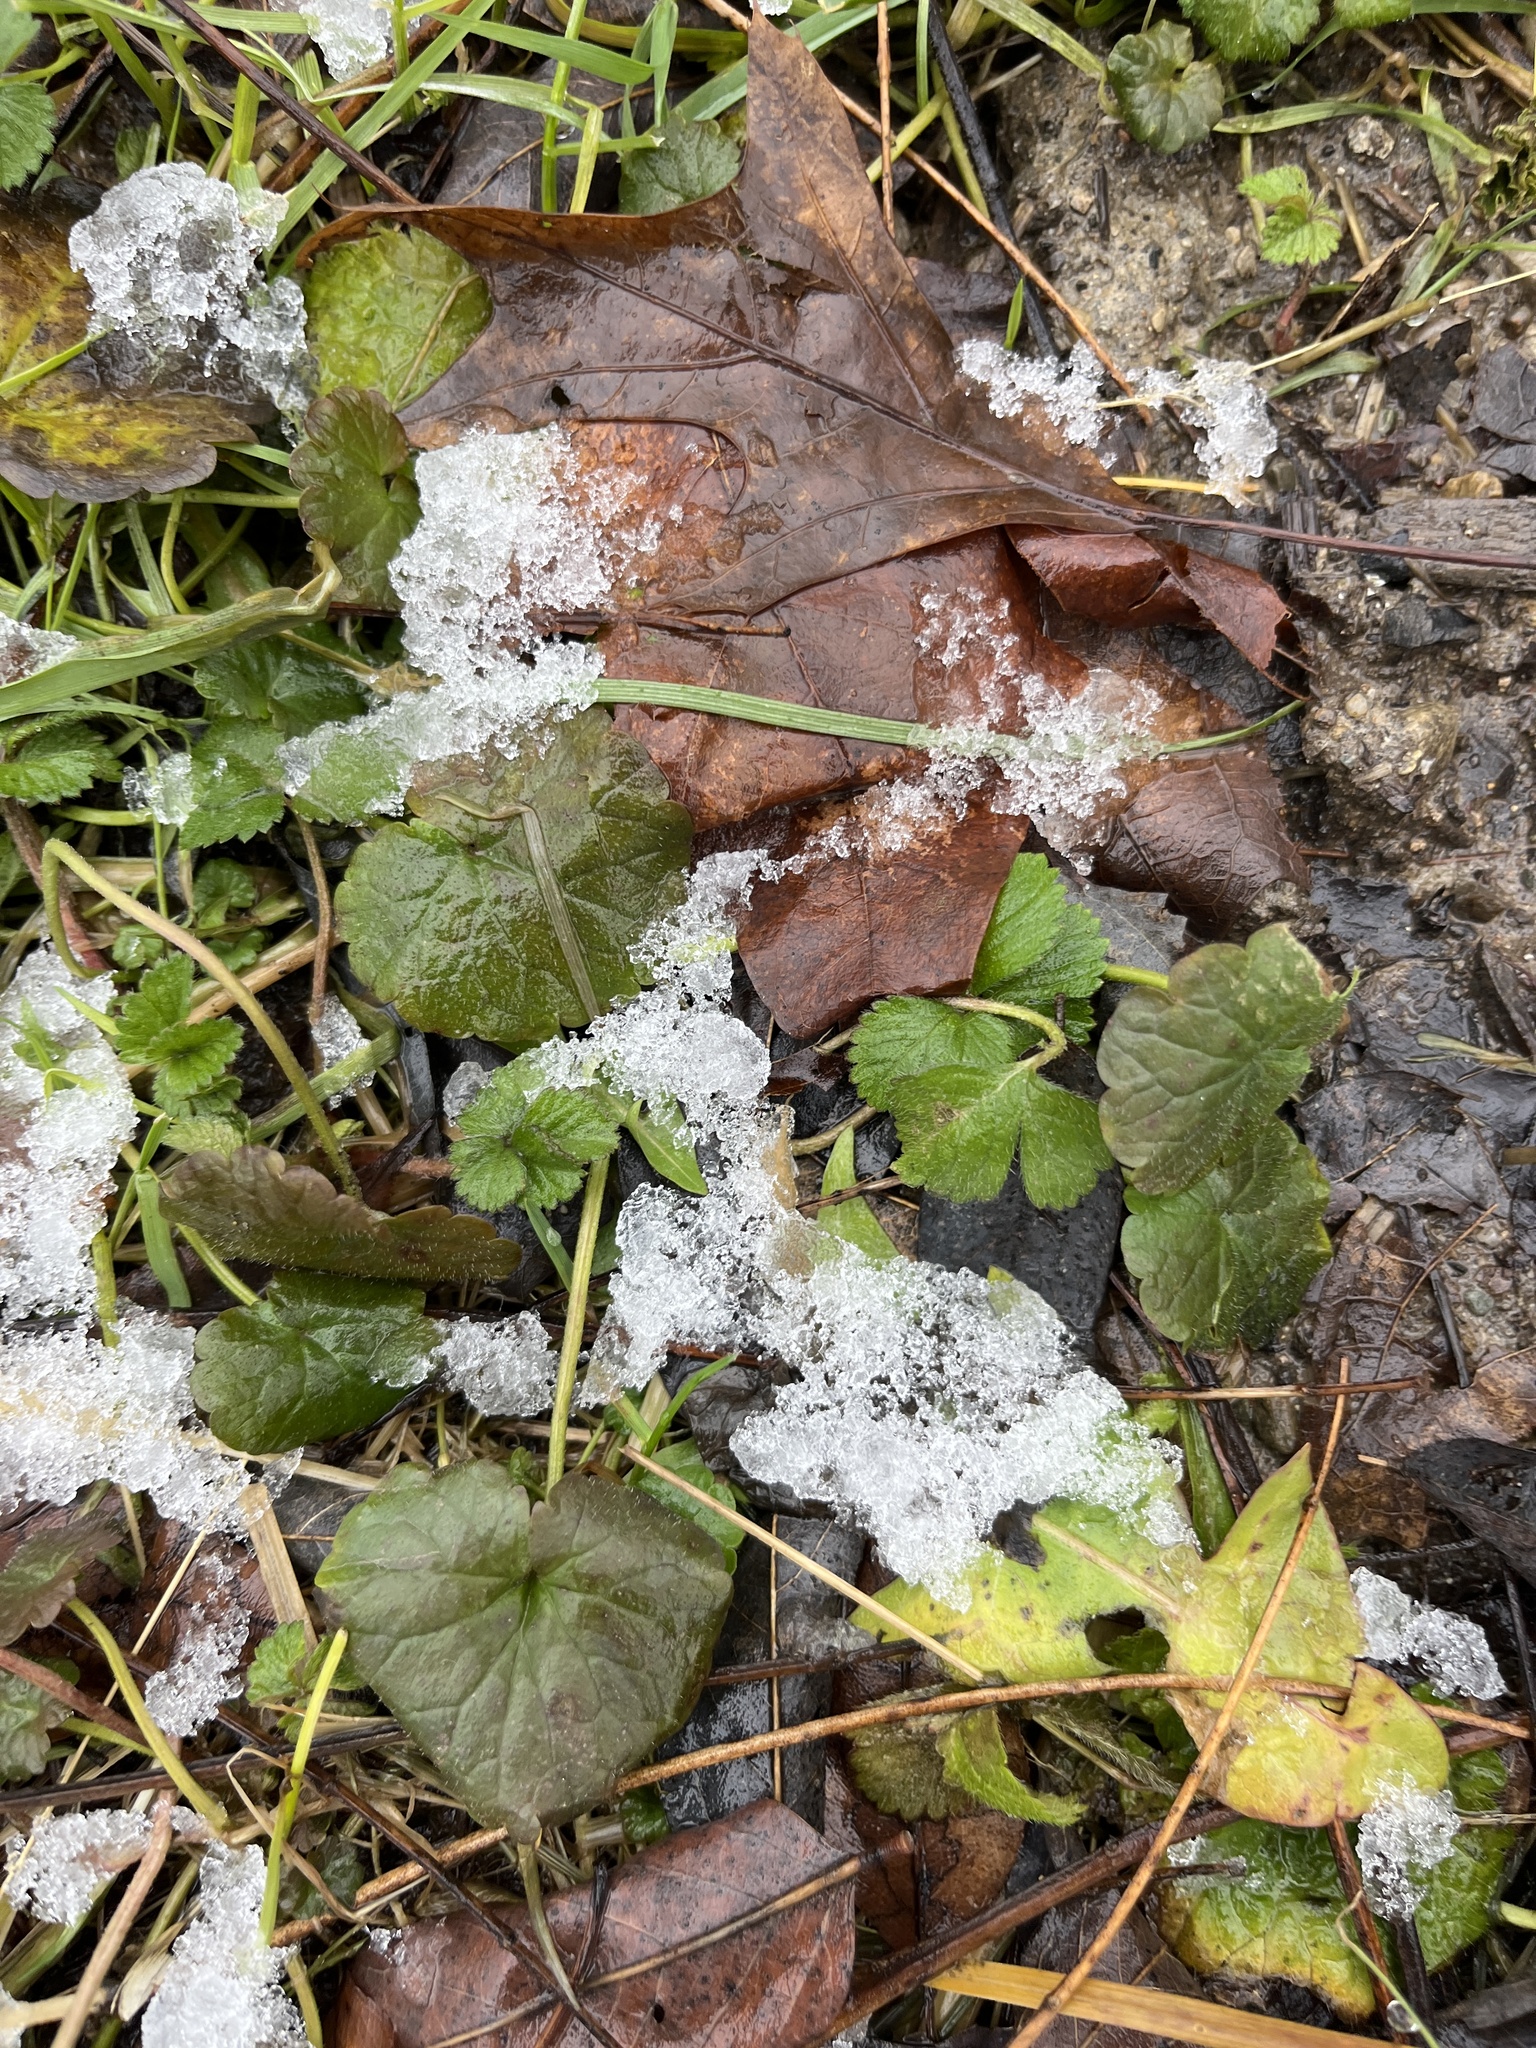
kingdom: Plantae
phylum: Tracheophyta
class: Magnoliopsida
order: Lamiales
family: Lamiaceae
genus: Glechoma
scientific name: Glechoma hederacea
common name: Ground ivy
